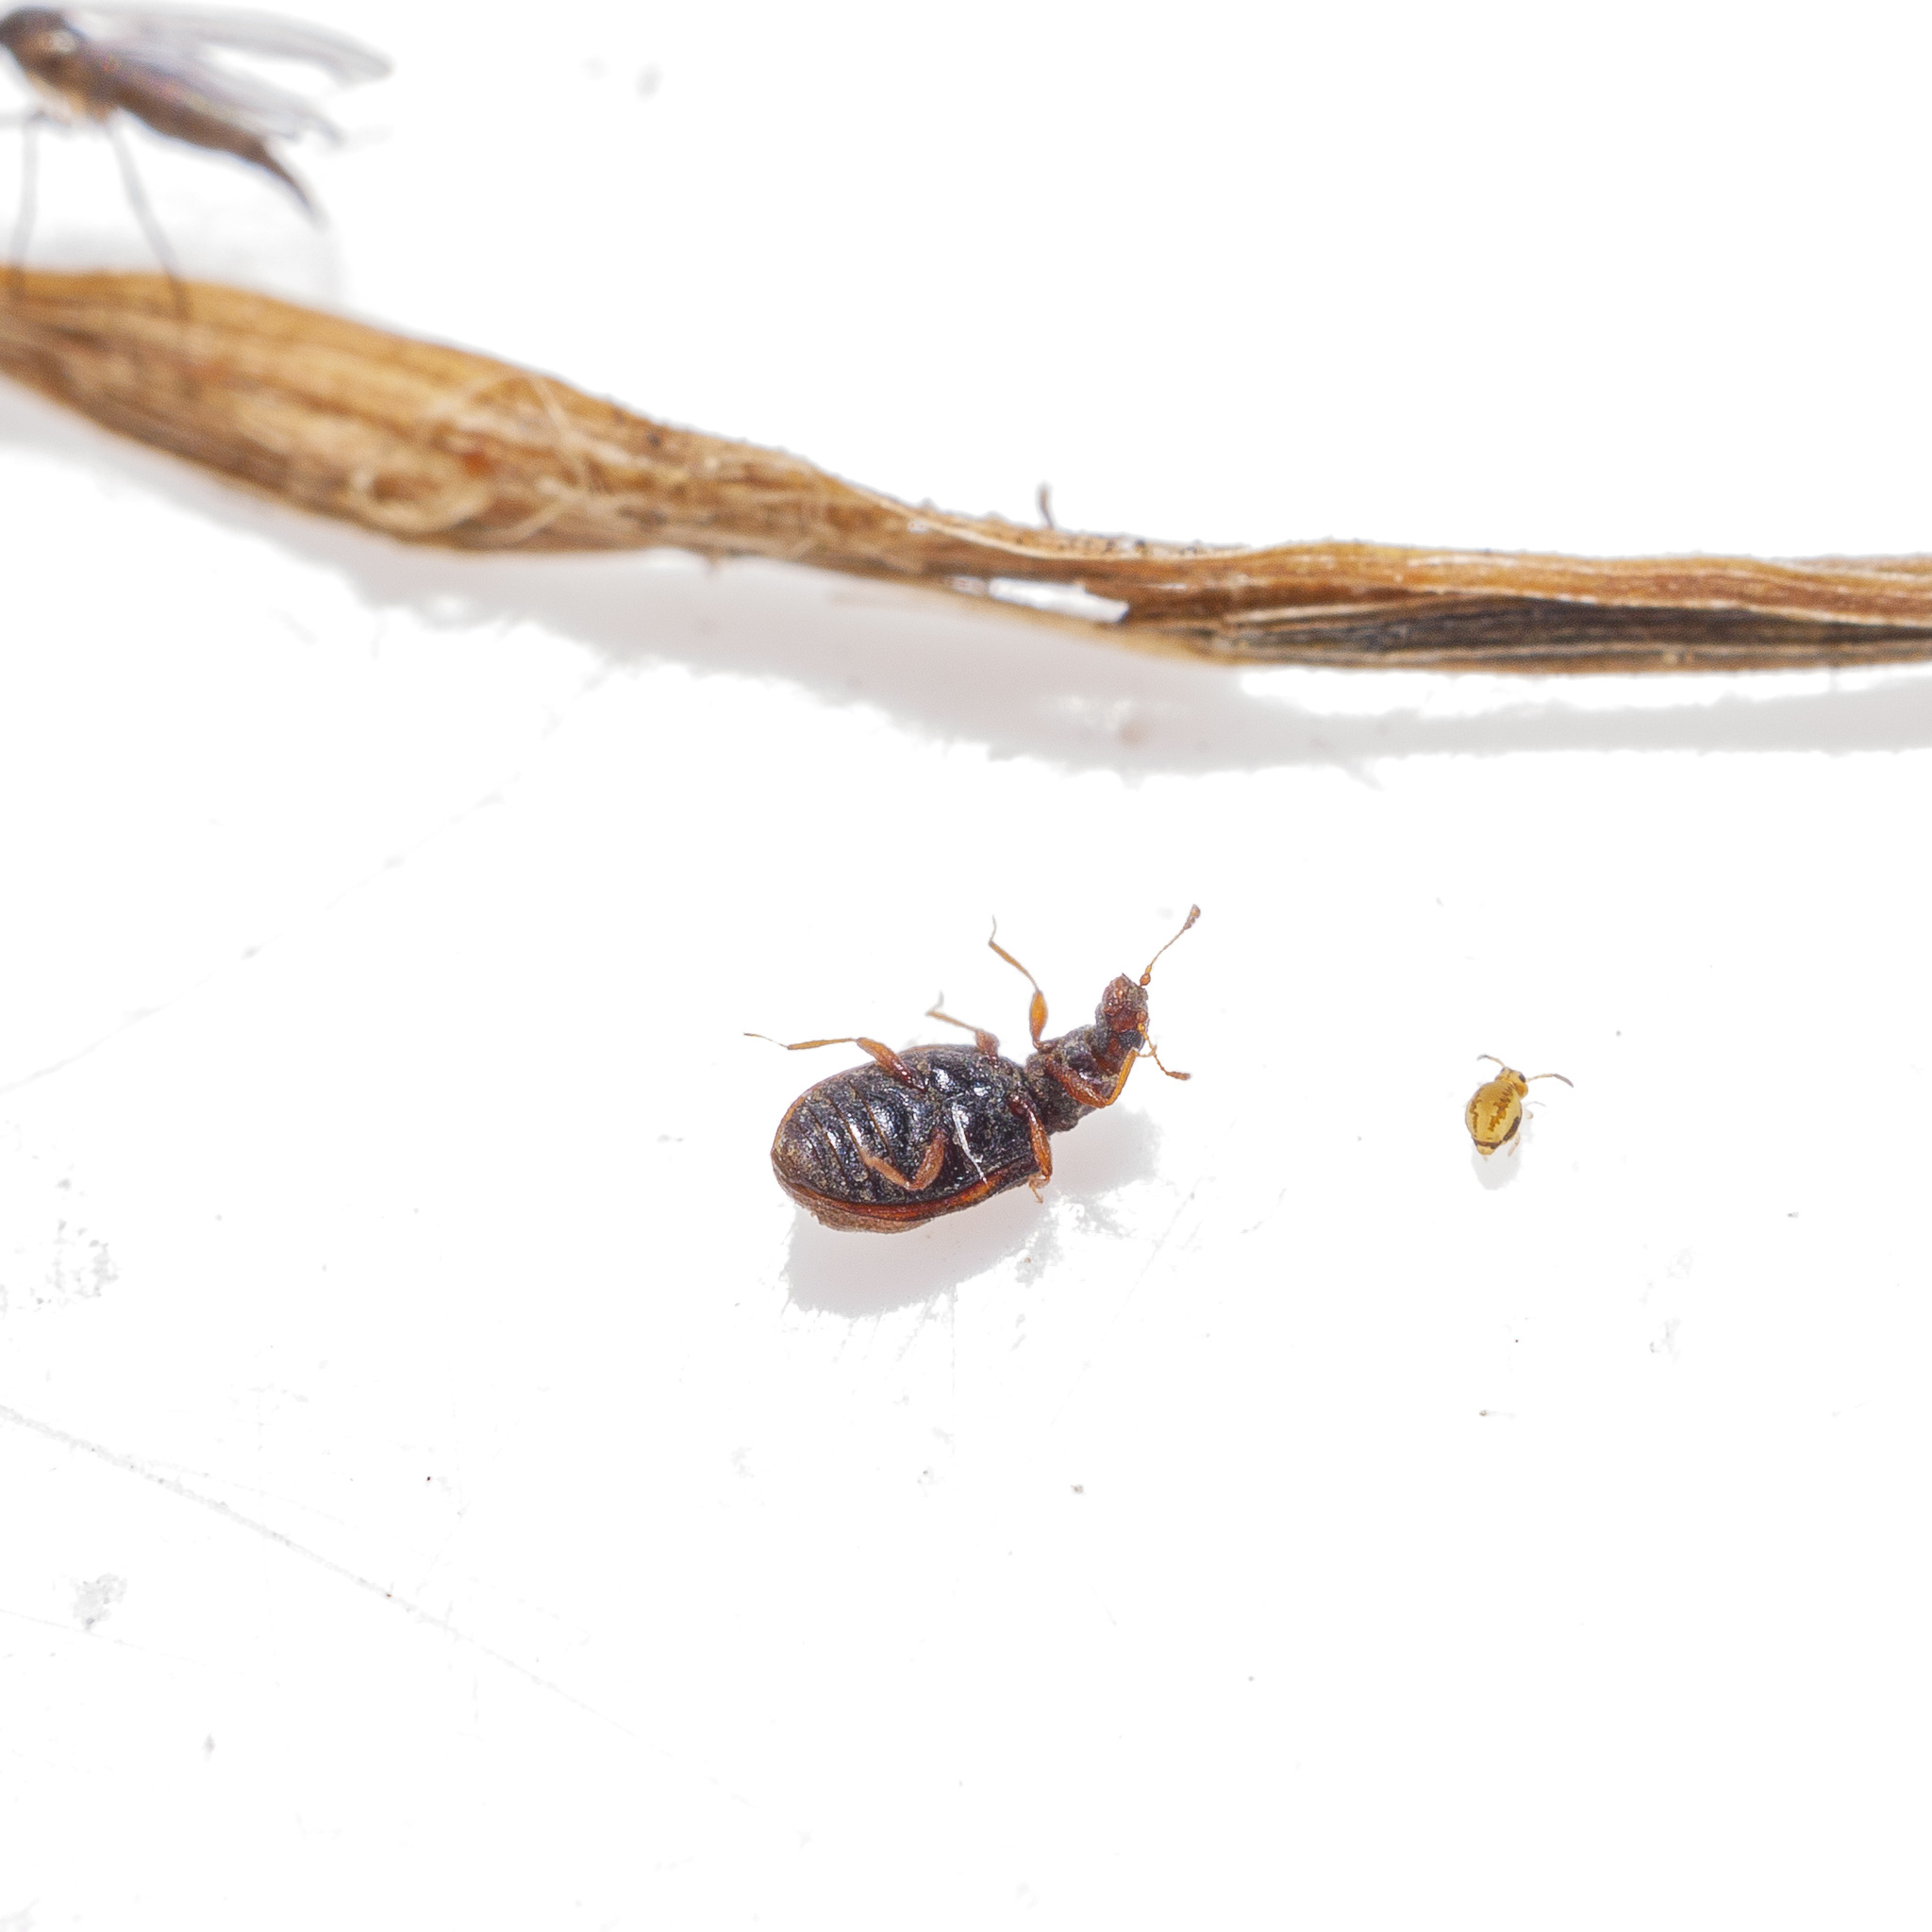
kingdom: Animalia
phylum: Arthropoda
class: Insecta
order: Coleoptera
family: Latridiidae
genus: Cartodere
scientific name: Cartodere bifasciata
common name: Plaster beetle
